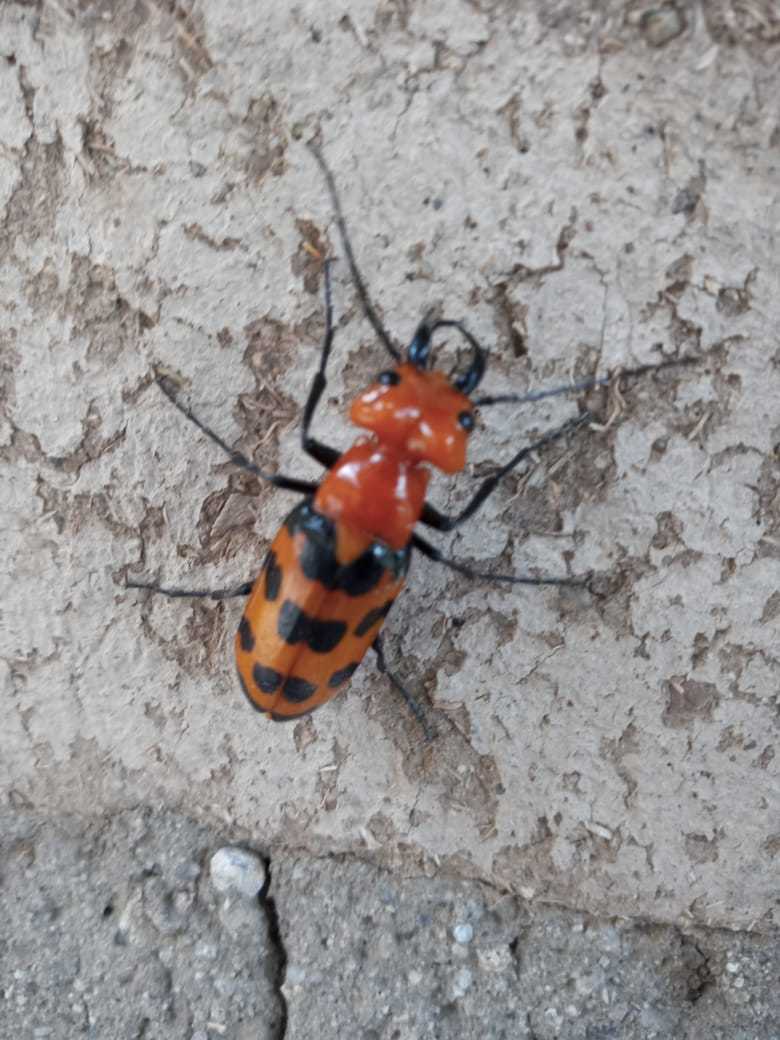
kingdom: Animalia
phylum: Arthropoda
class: Insecta
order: Coleoptera
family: Meloidae
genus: Cissites
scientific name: Cissites auriculata
